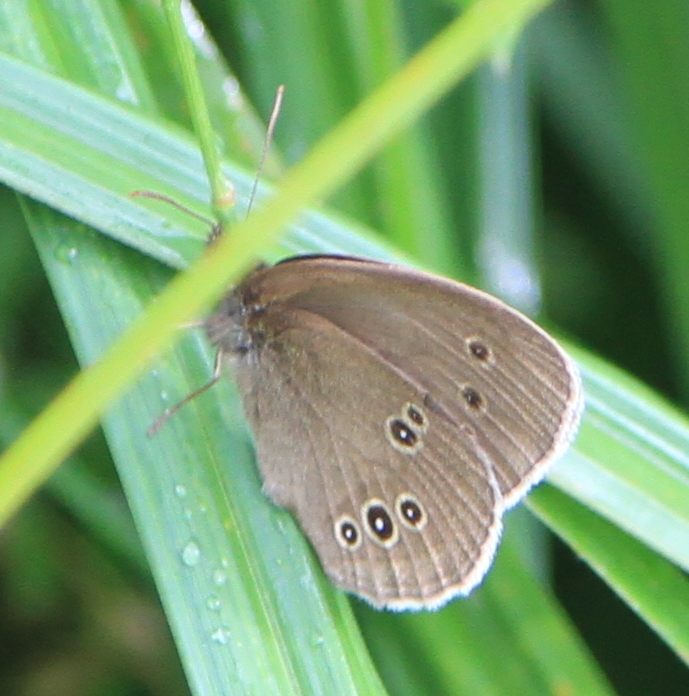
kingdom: Animalia
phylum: Arthropoda
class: Insecta
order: Lepidoptera
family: Nymphalidae
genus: Aphantopus
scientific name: Aphantopus hyperantus
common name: Ringlet
